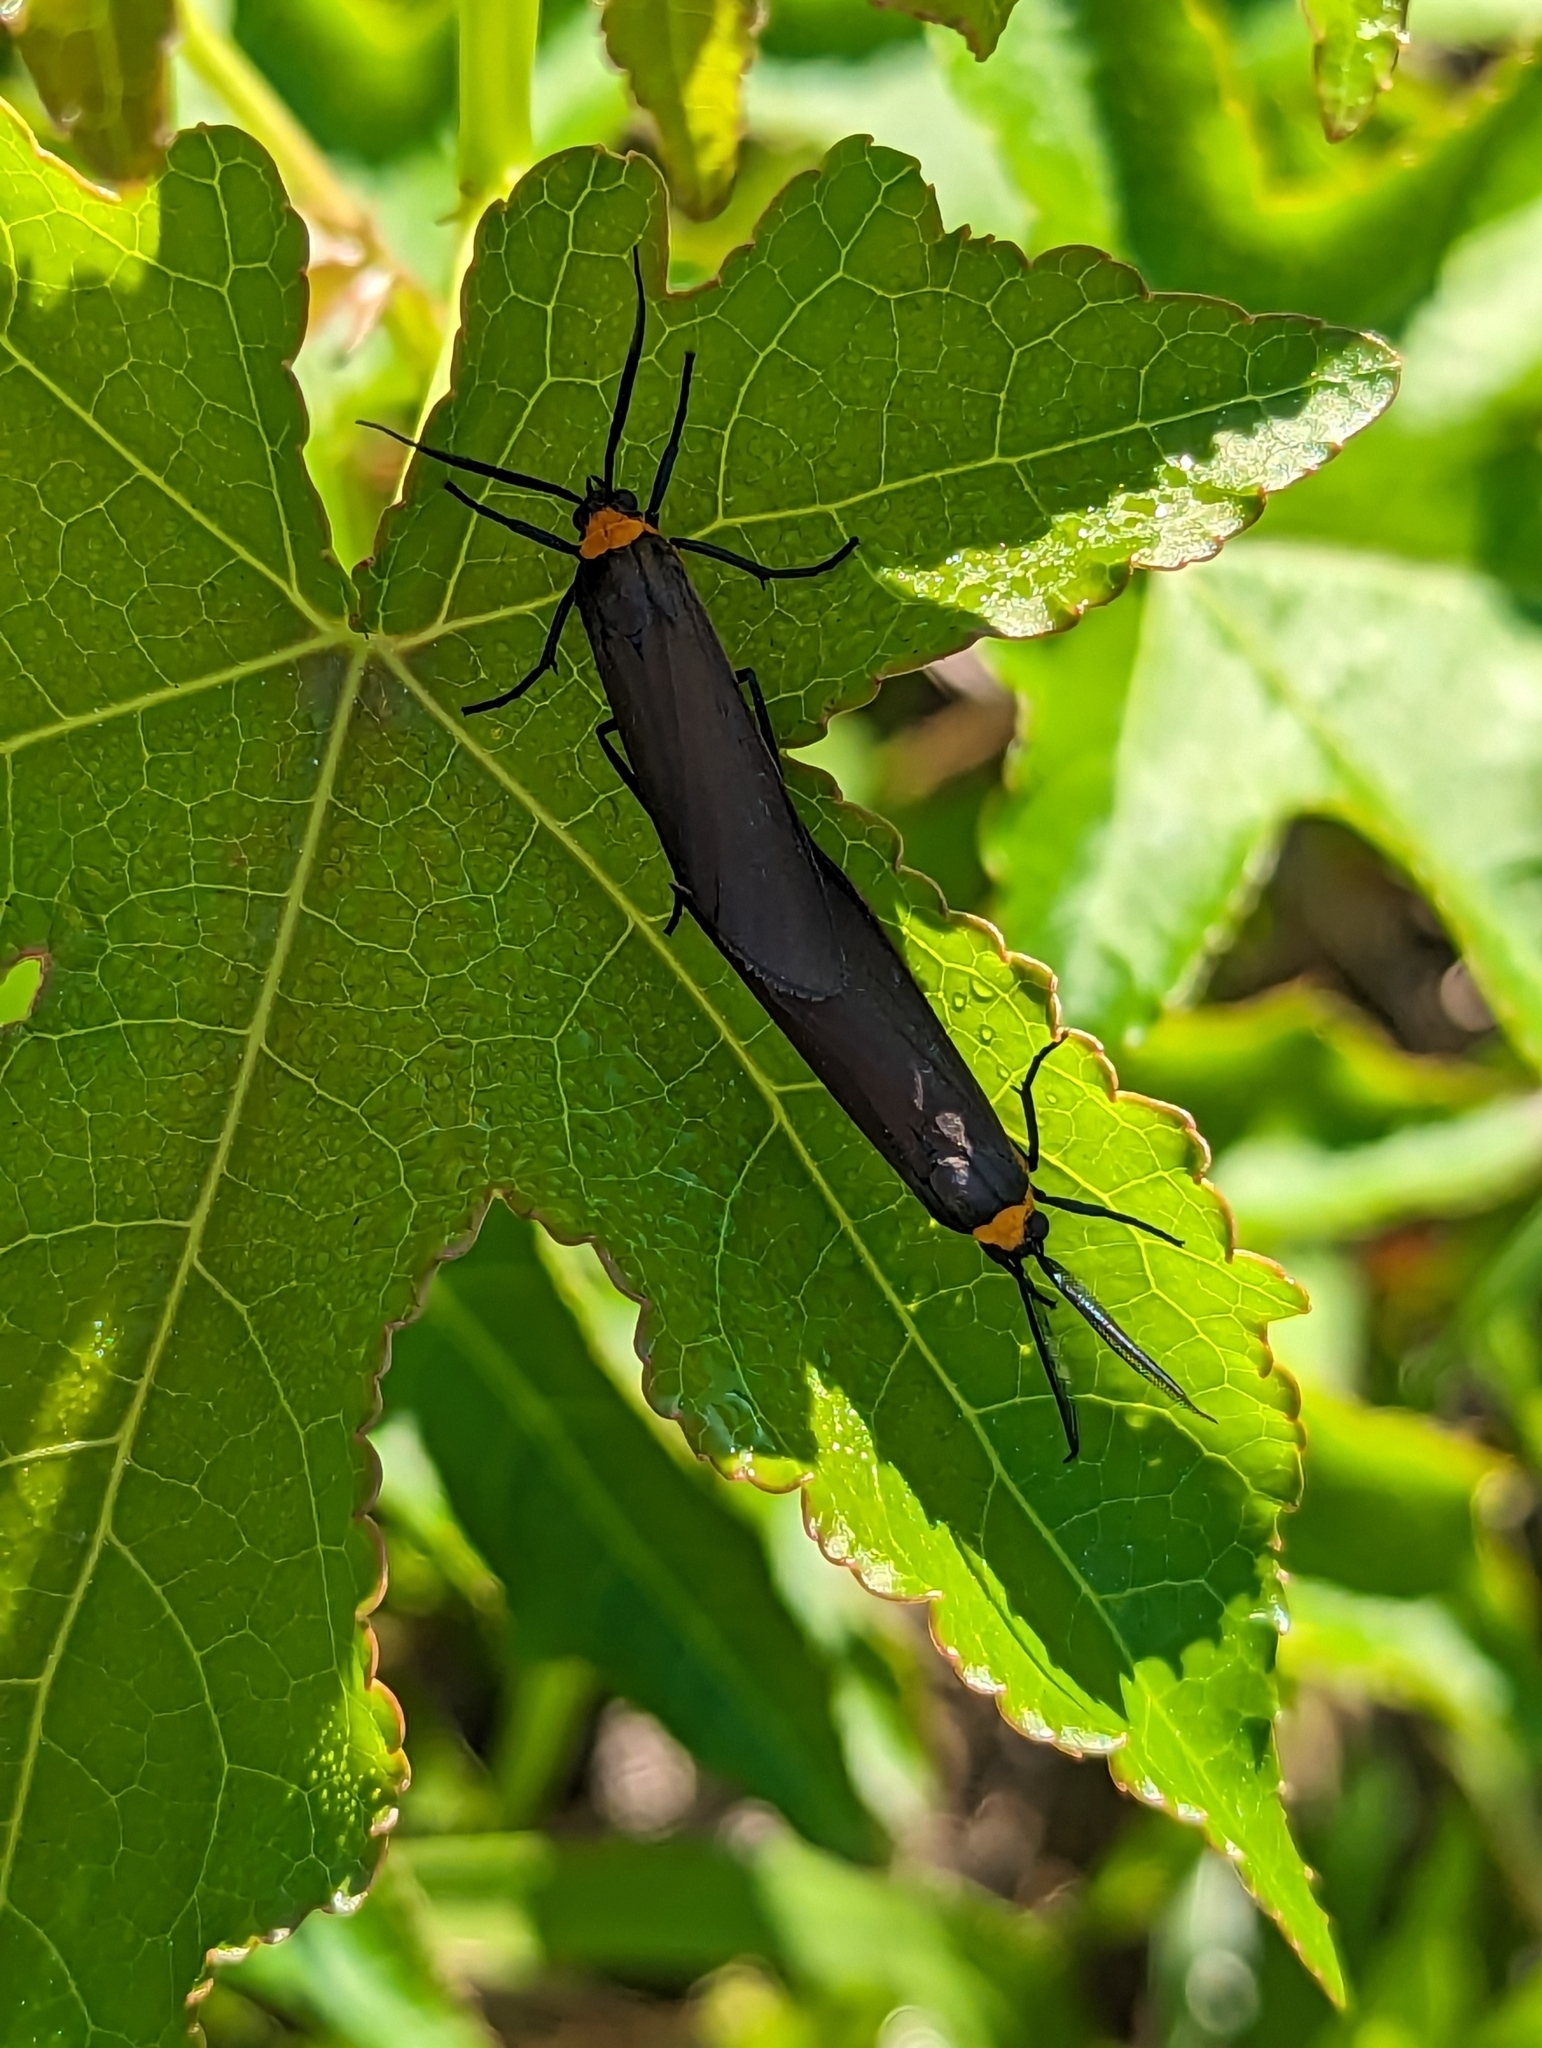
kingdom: Animalia
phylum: Arthropoda
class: Insecta
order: Lepidoptera
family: Erebidae
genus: Cisseps
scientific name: Cisseps fulvicollis
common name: Yellow-collared scape moth
